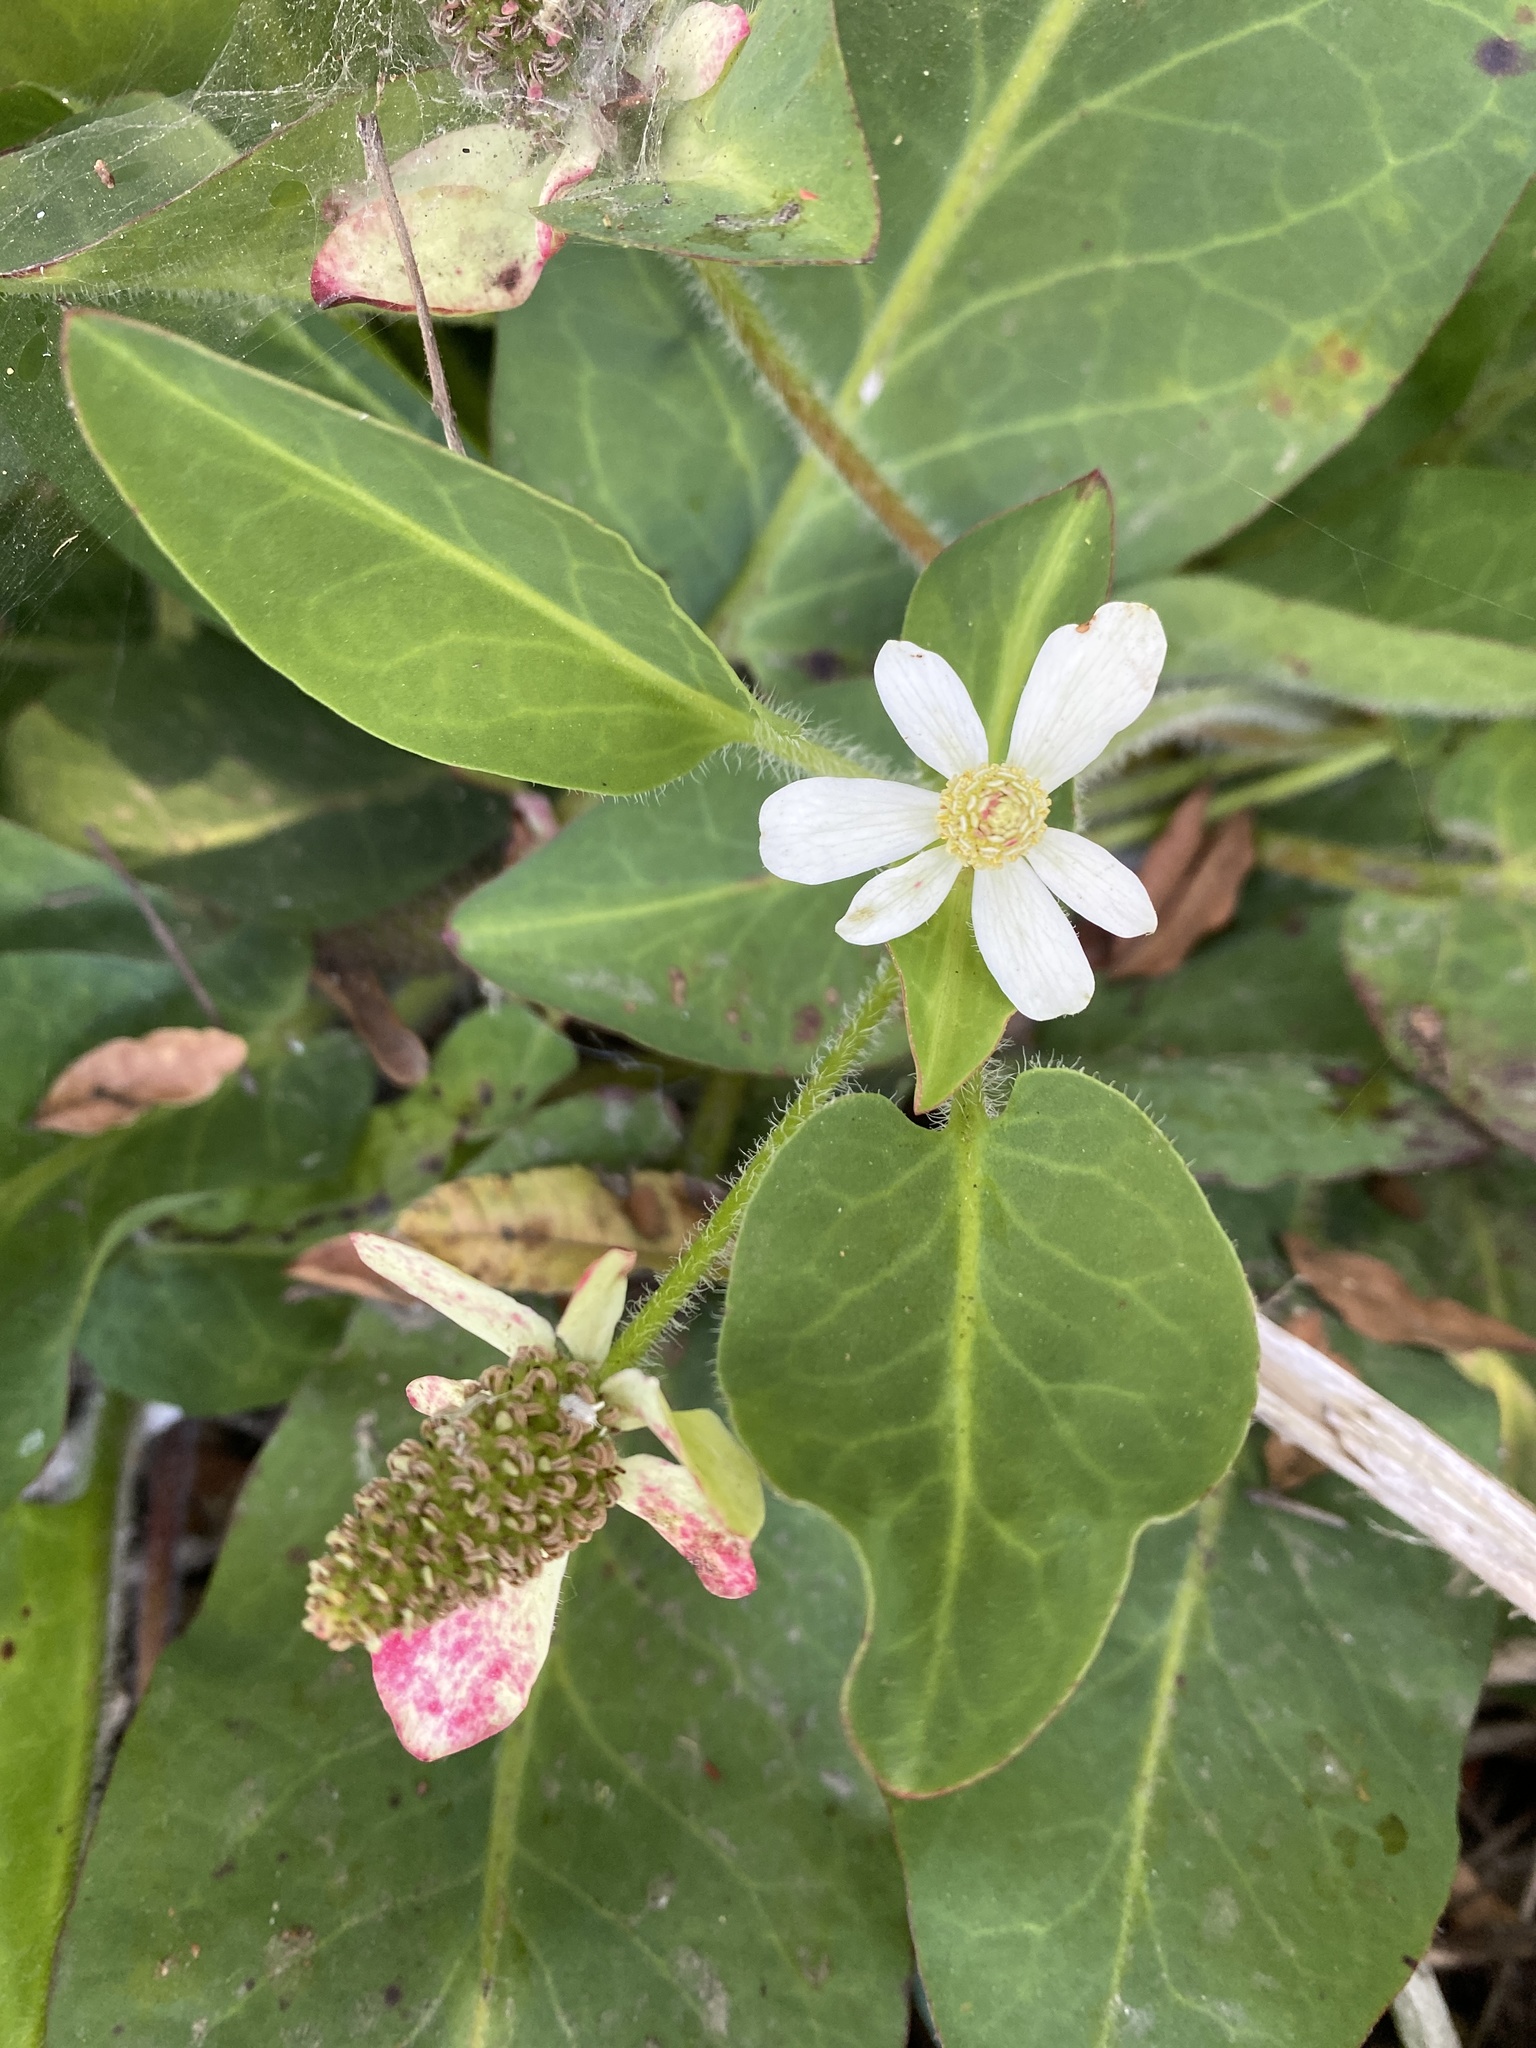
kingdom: Plantae
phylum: Tracheophyta
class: Magnoliopsida
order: Piperales
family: Saururaceae
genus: Anemopsis
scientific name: Anemopsis californica
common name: Apache-beads
